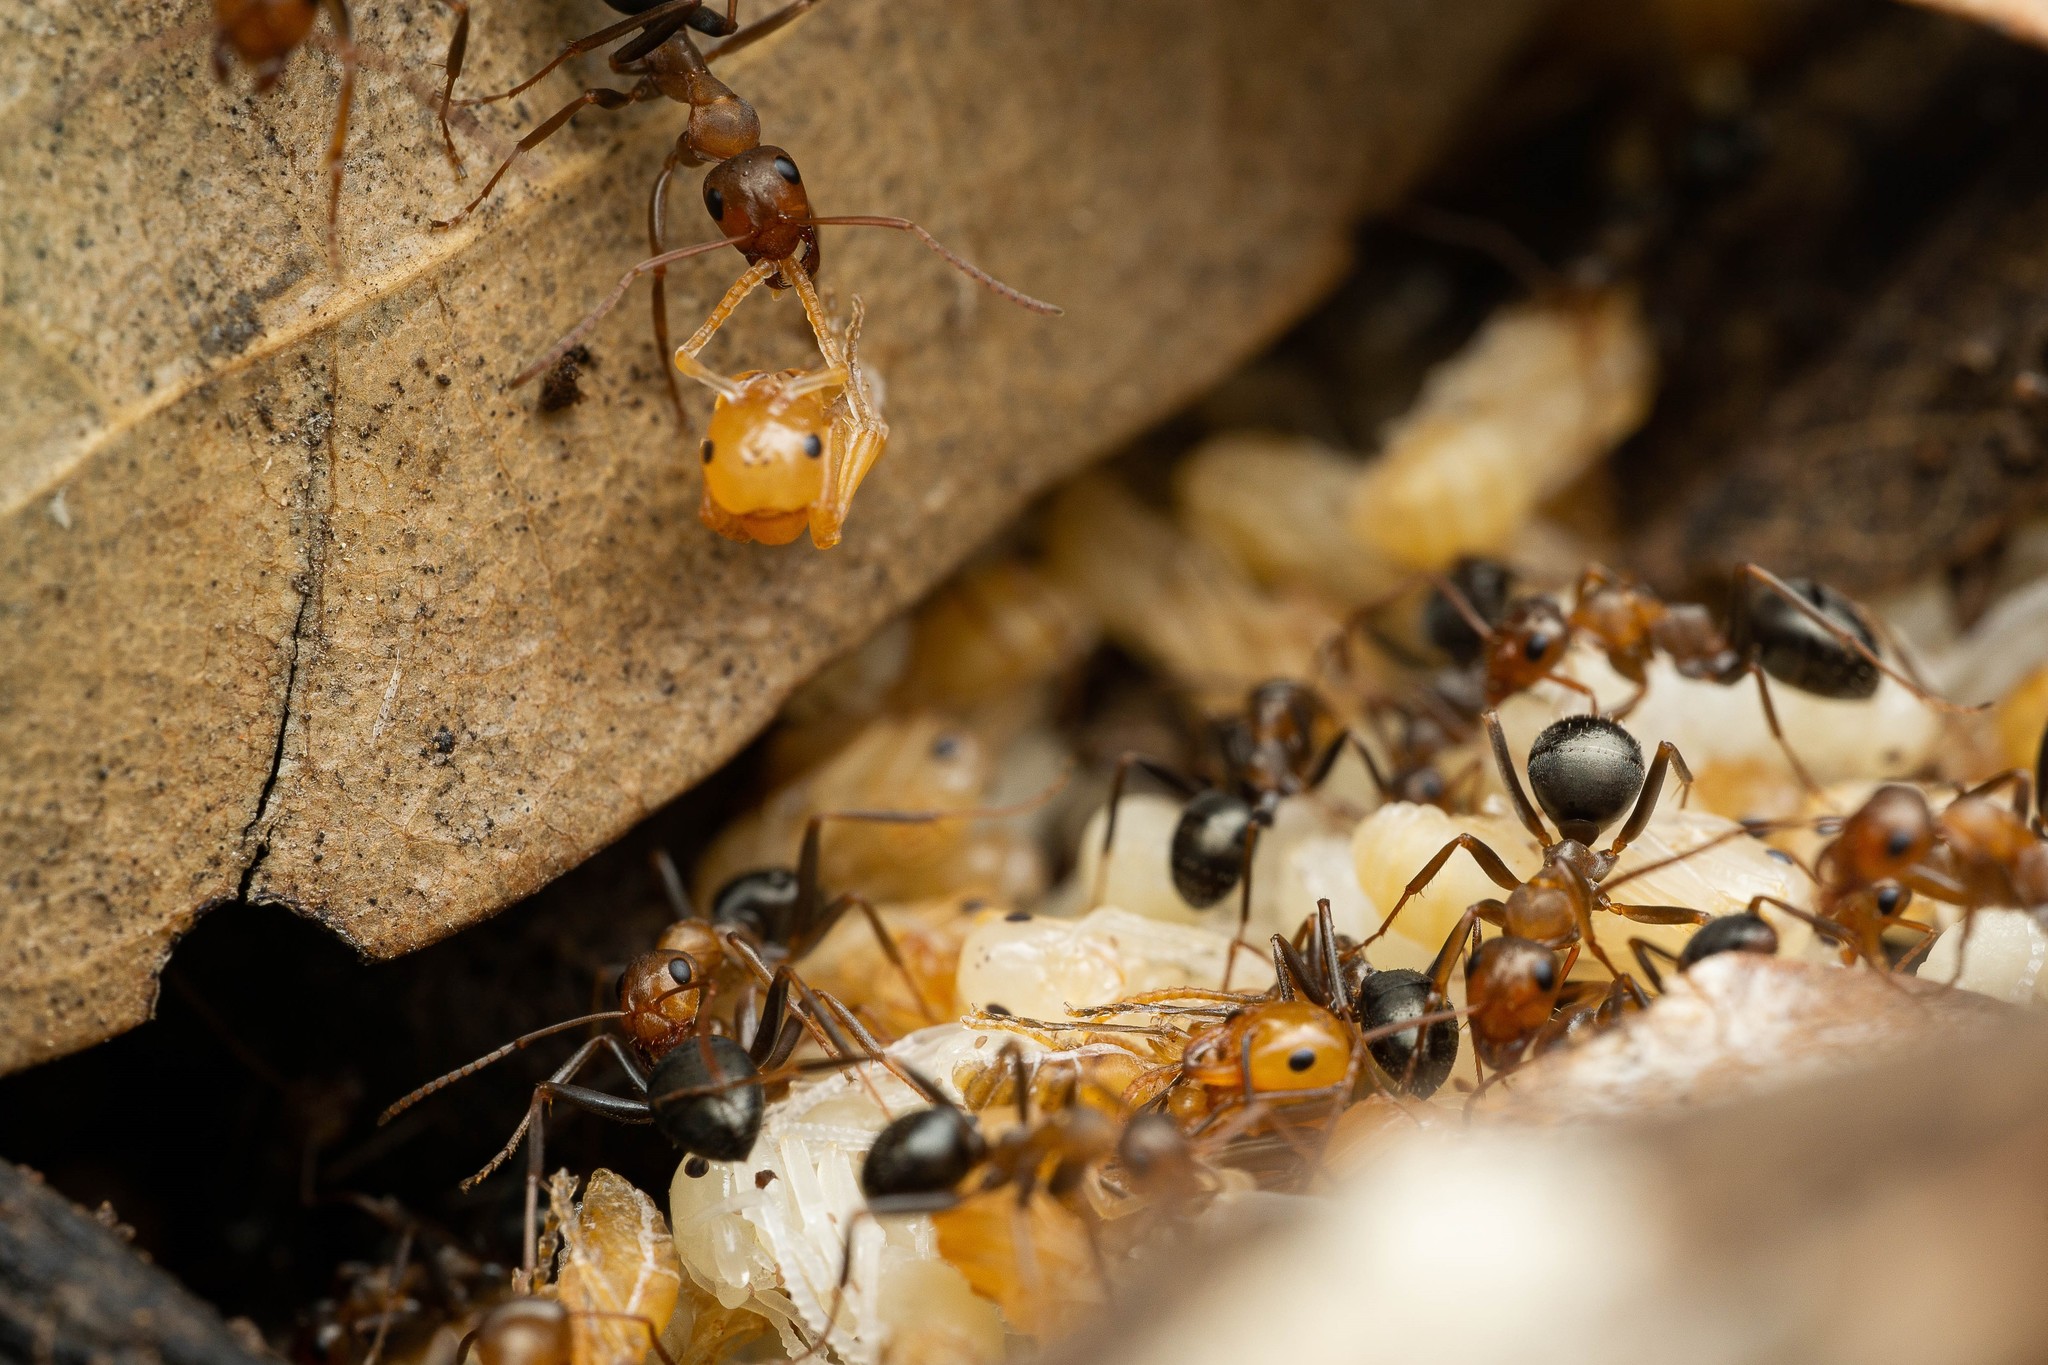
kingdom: Animalia
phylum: Arthropoda
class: Insecta
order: Hymenoptera
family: Formicidae
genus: Formica
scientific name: Formica foreliana
